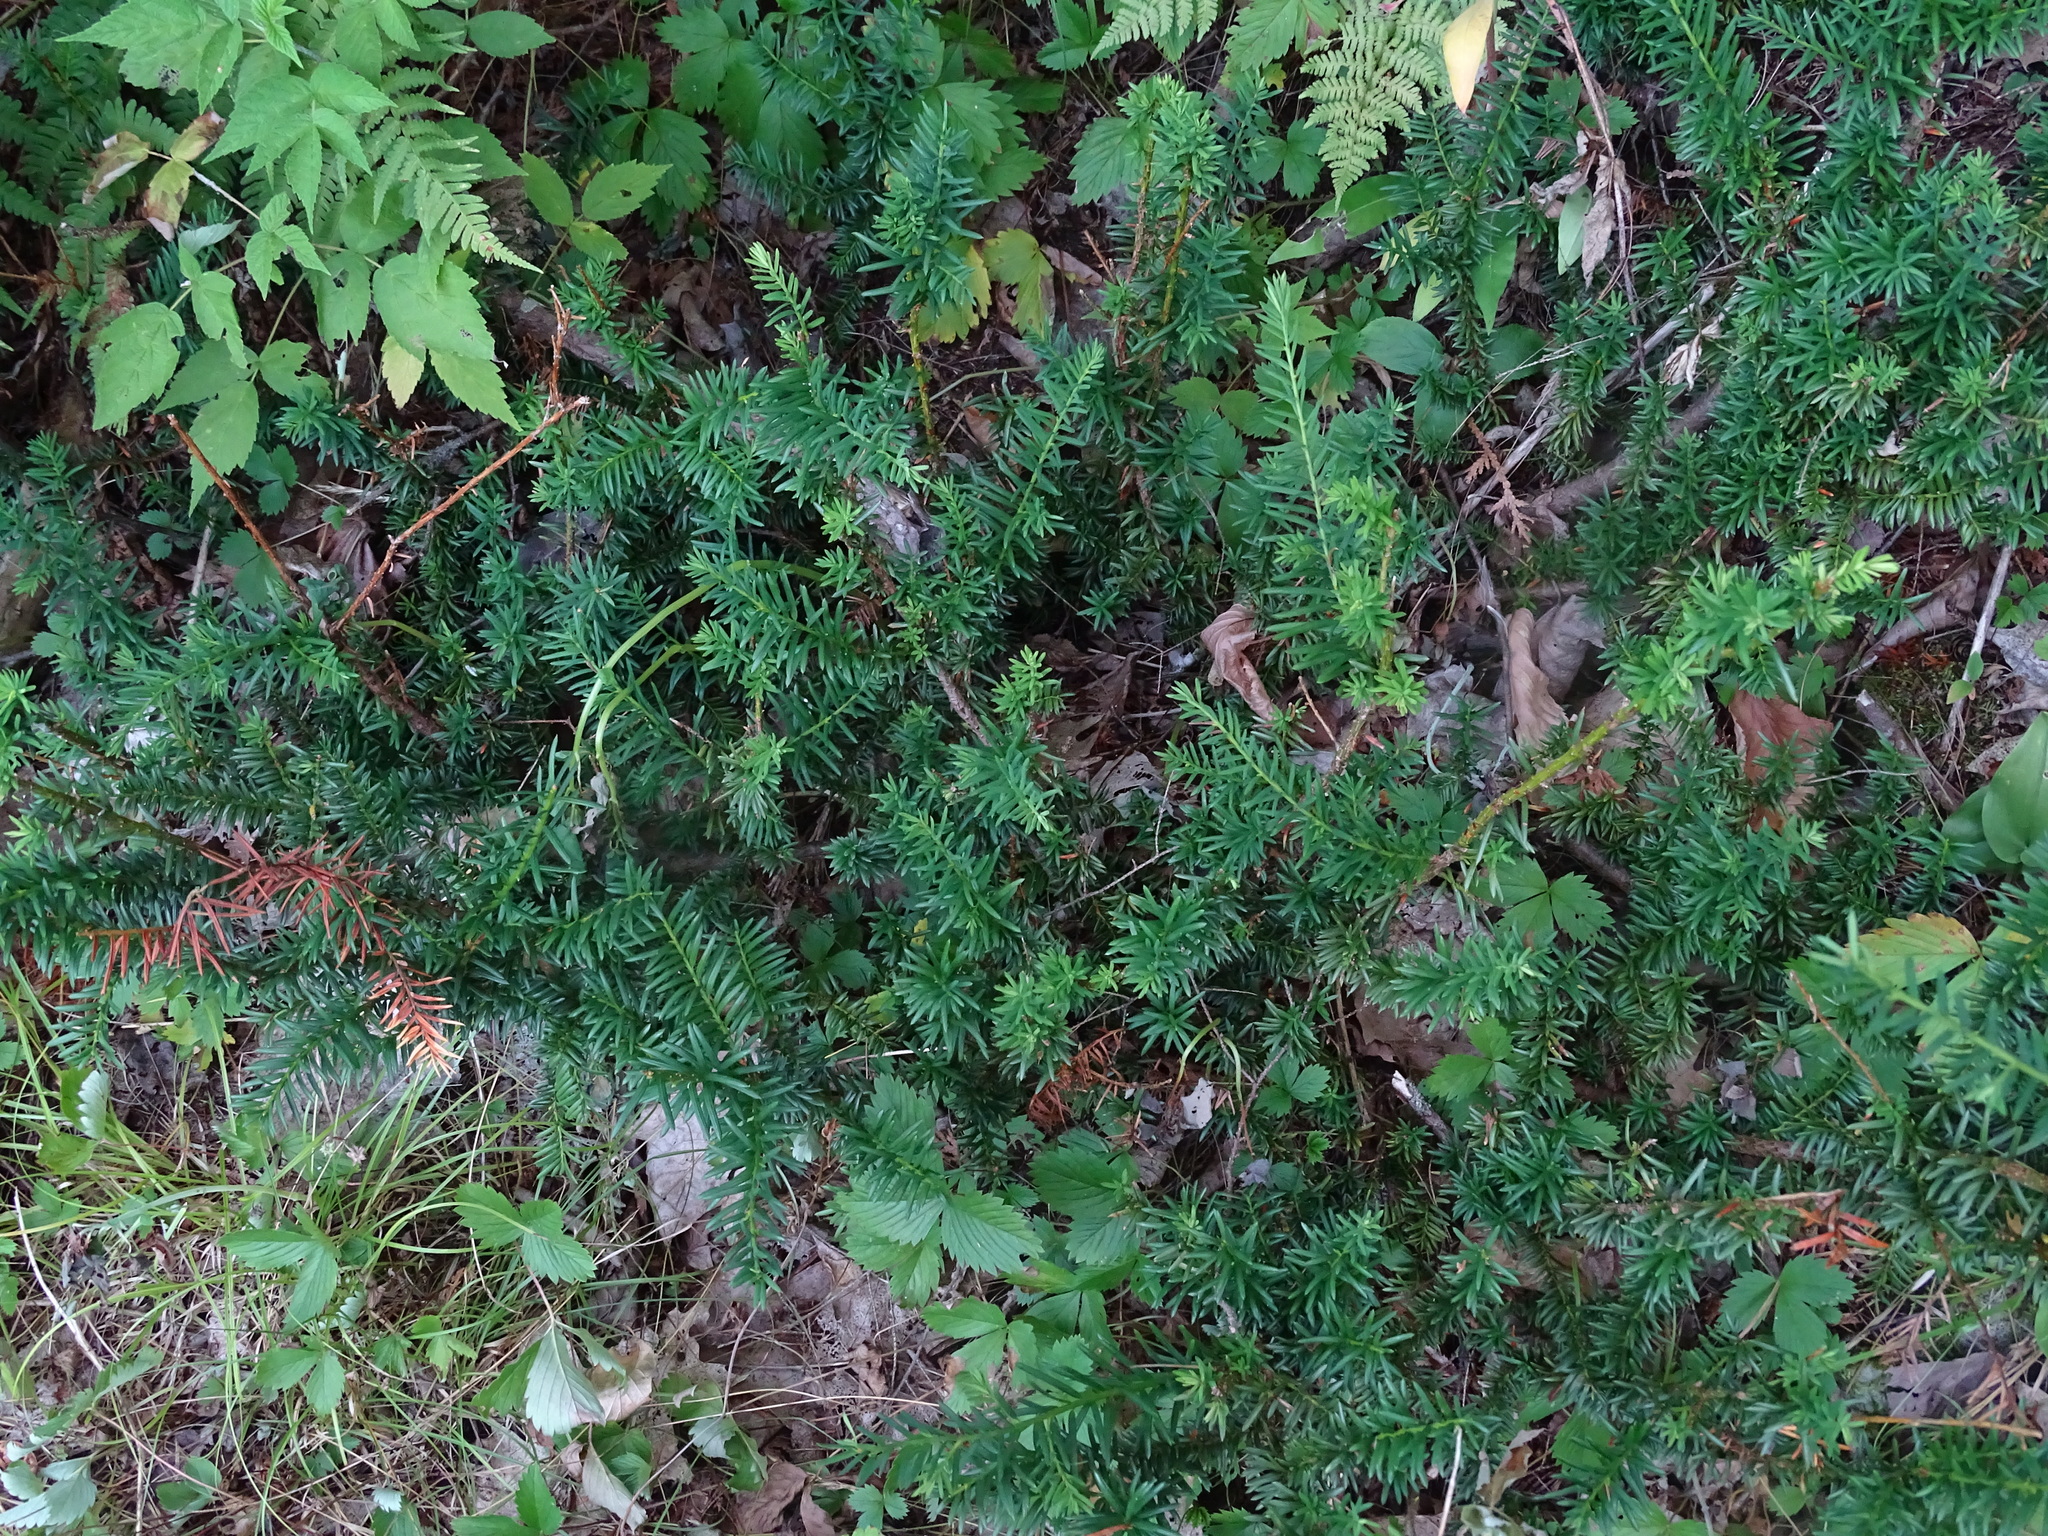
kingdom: Plantae
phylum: Tracheophyta
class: Pinopsida
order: Pinales
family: Taxaceae
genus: Taxus
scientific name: Taxus canadensis
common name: American yew
